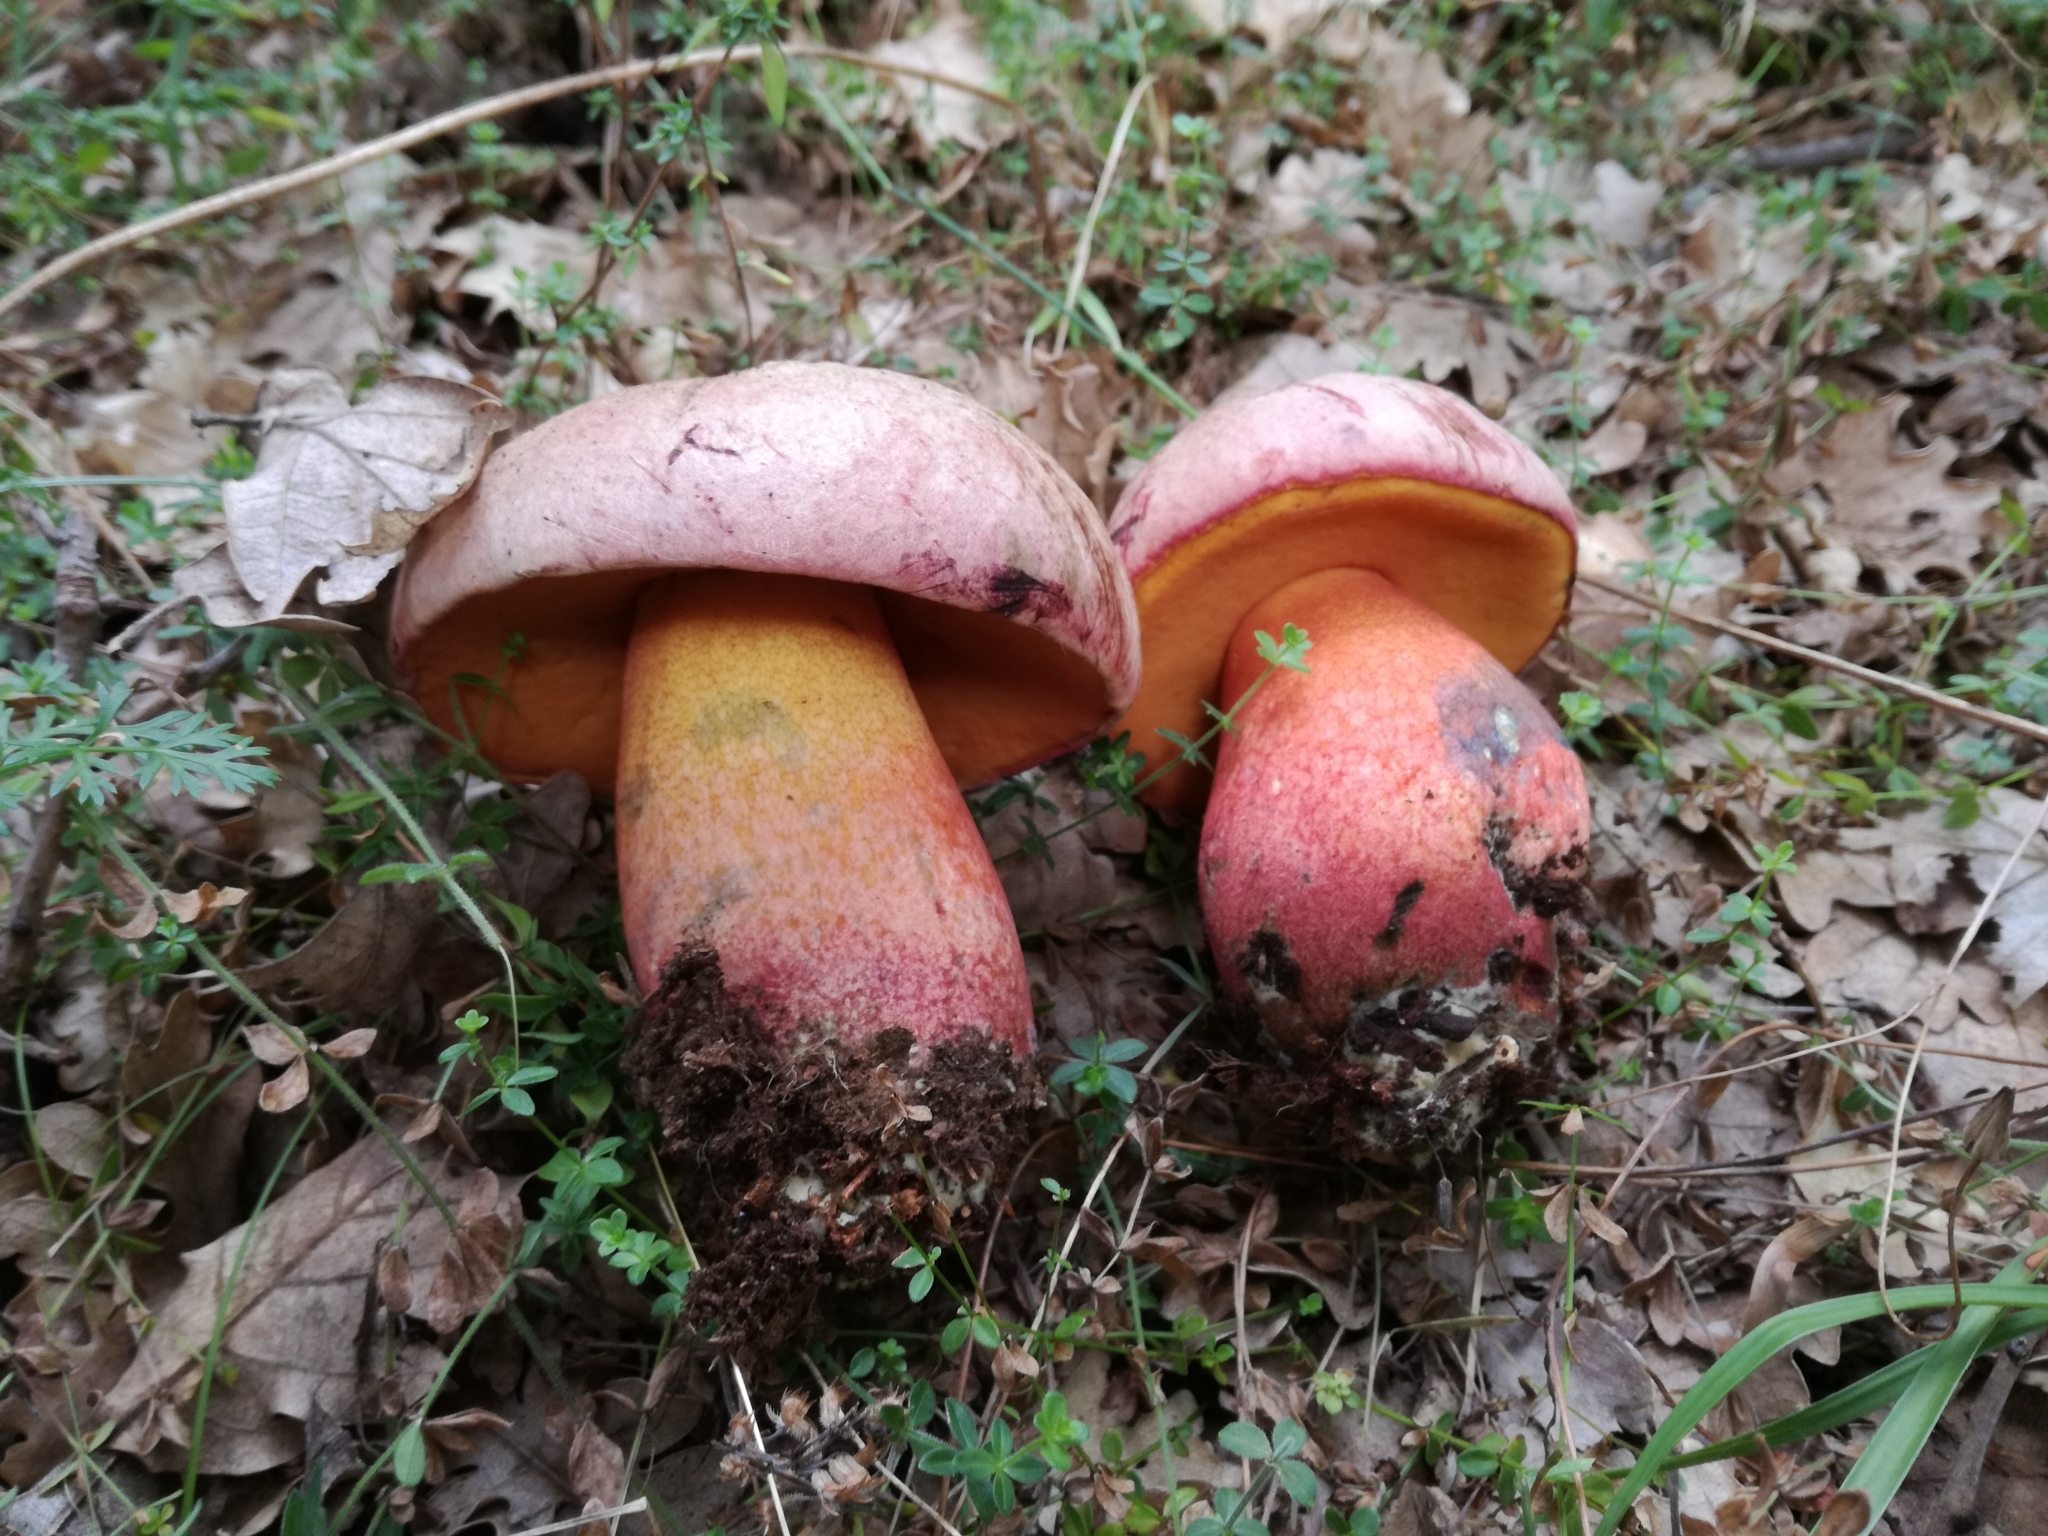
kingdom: Fungi
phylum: Basidiomycota
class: Agaricomycetes
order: Boletales
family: Boletaceae
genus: Rubroboletus
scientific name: Rubroboletus legaliae
